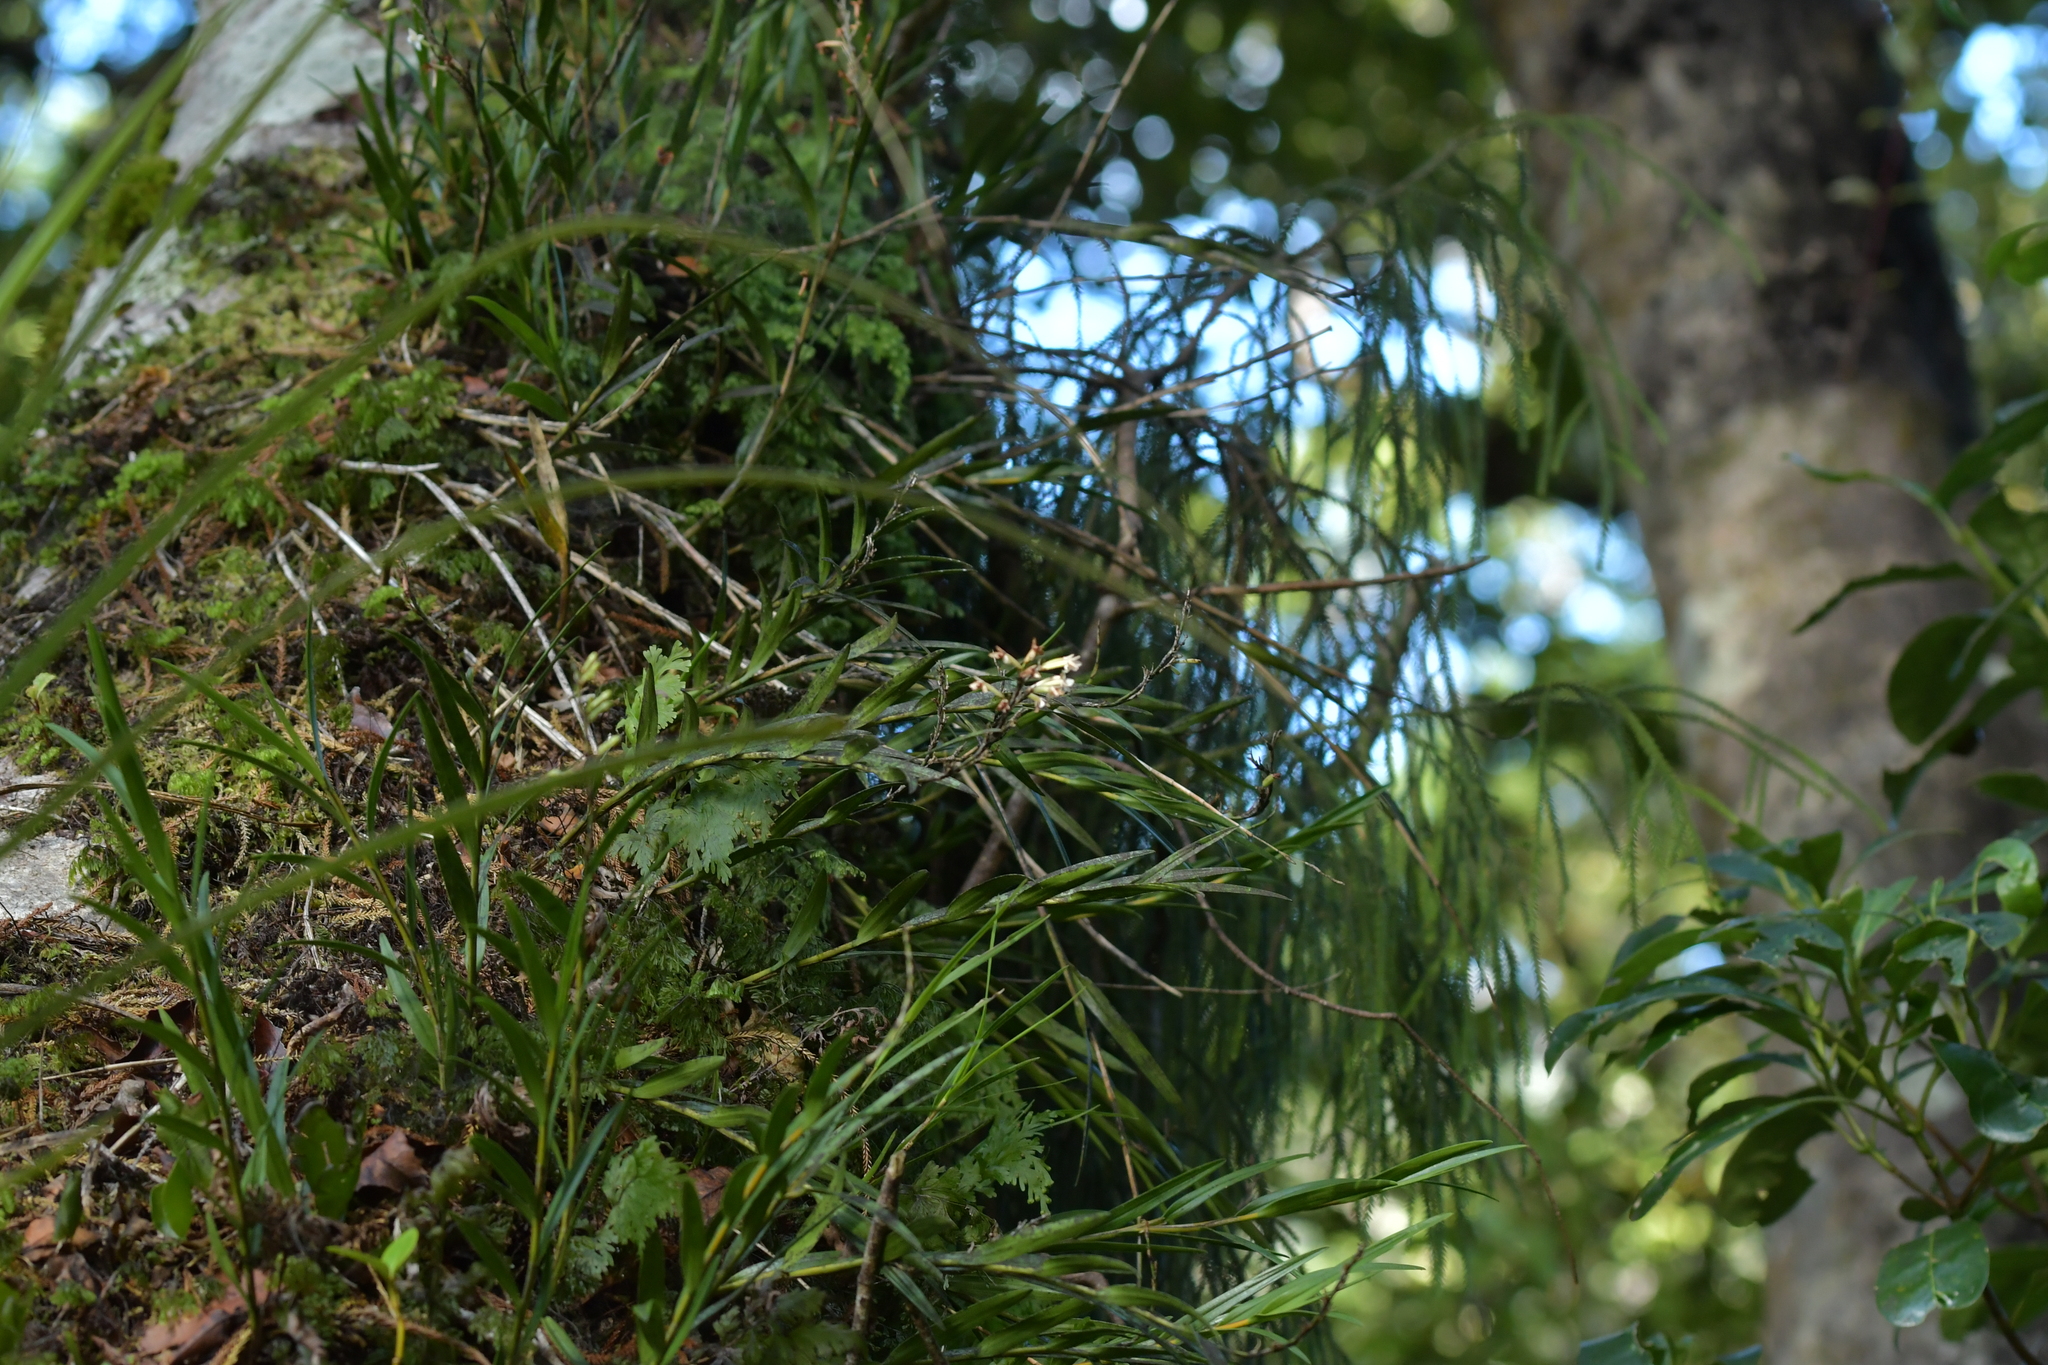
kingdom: Plantae
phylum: Tracheophyta
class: Liliopsida
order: Asparagales
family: Orchidaceae
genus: Earina
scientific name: Earina autumnalis
